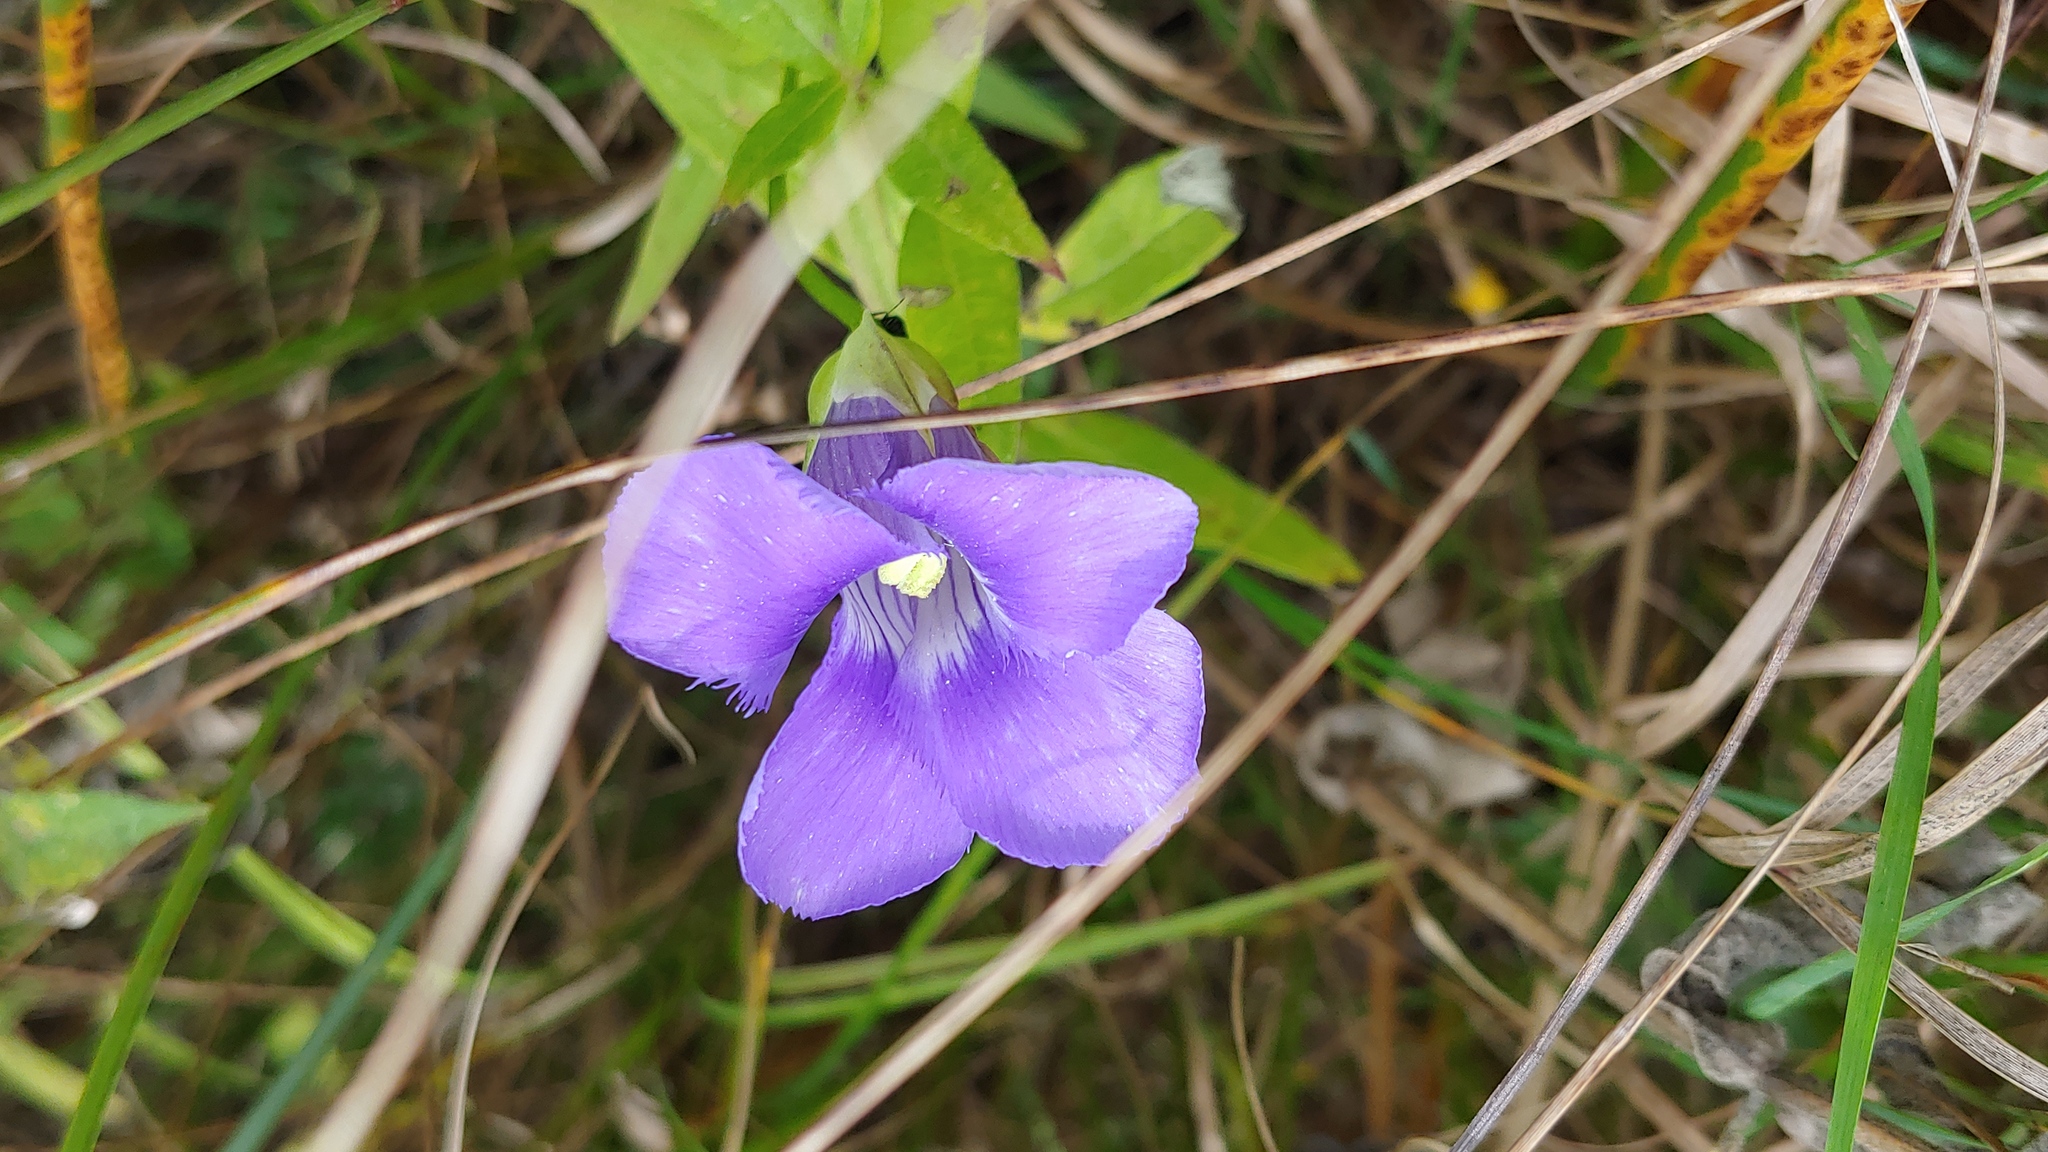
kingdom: Plantae
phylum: Tracheophyta
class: Magnoliopsida
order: Gentianales
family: Gentianaceae
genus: Gentianopsis
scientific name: Gentianopsis virgata
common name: Lesser fringed-gentian
